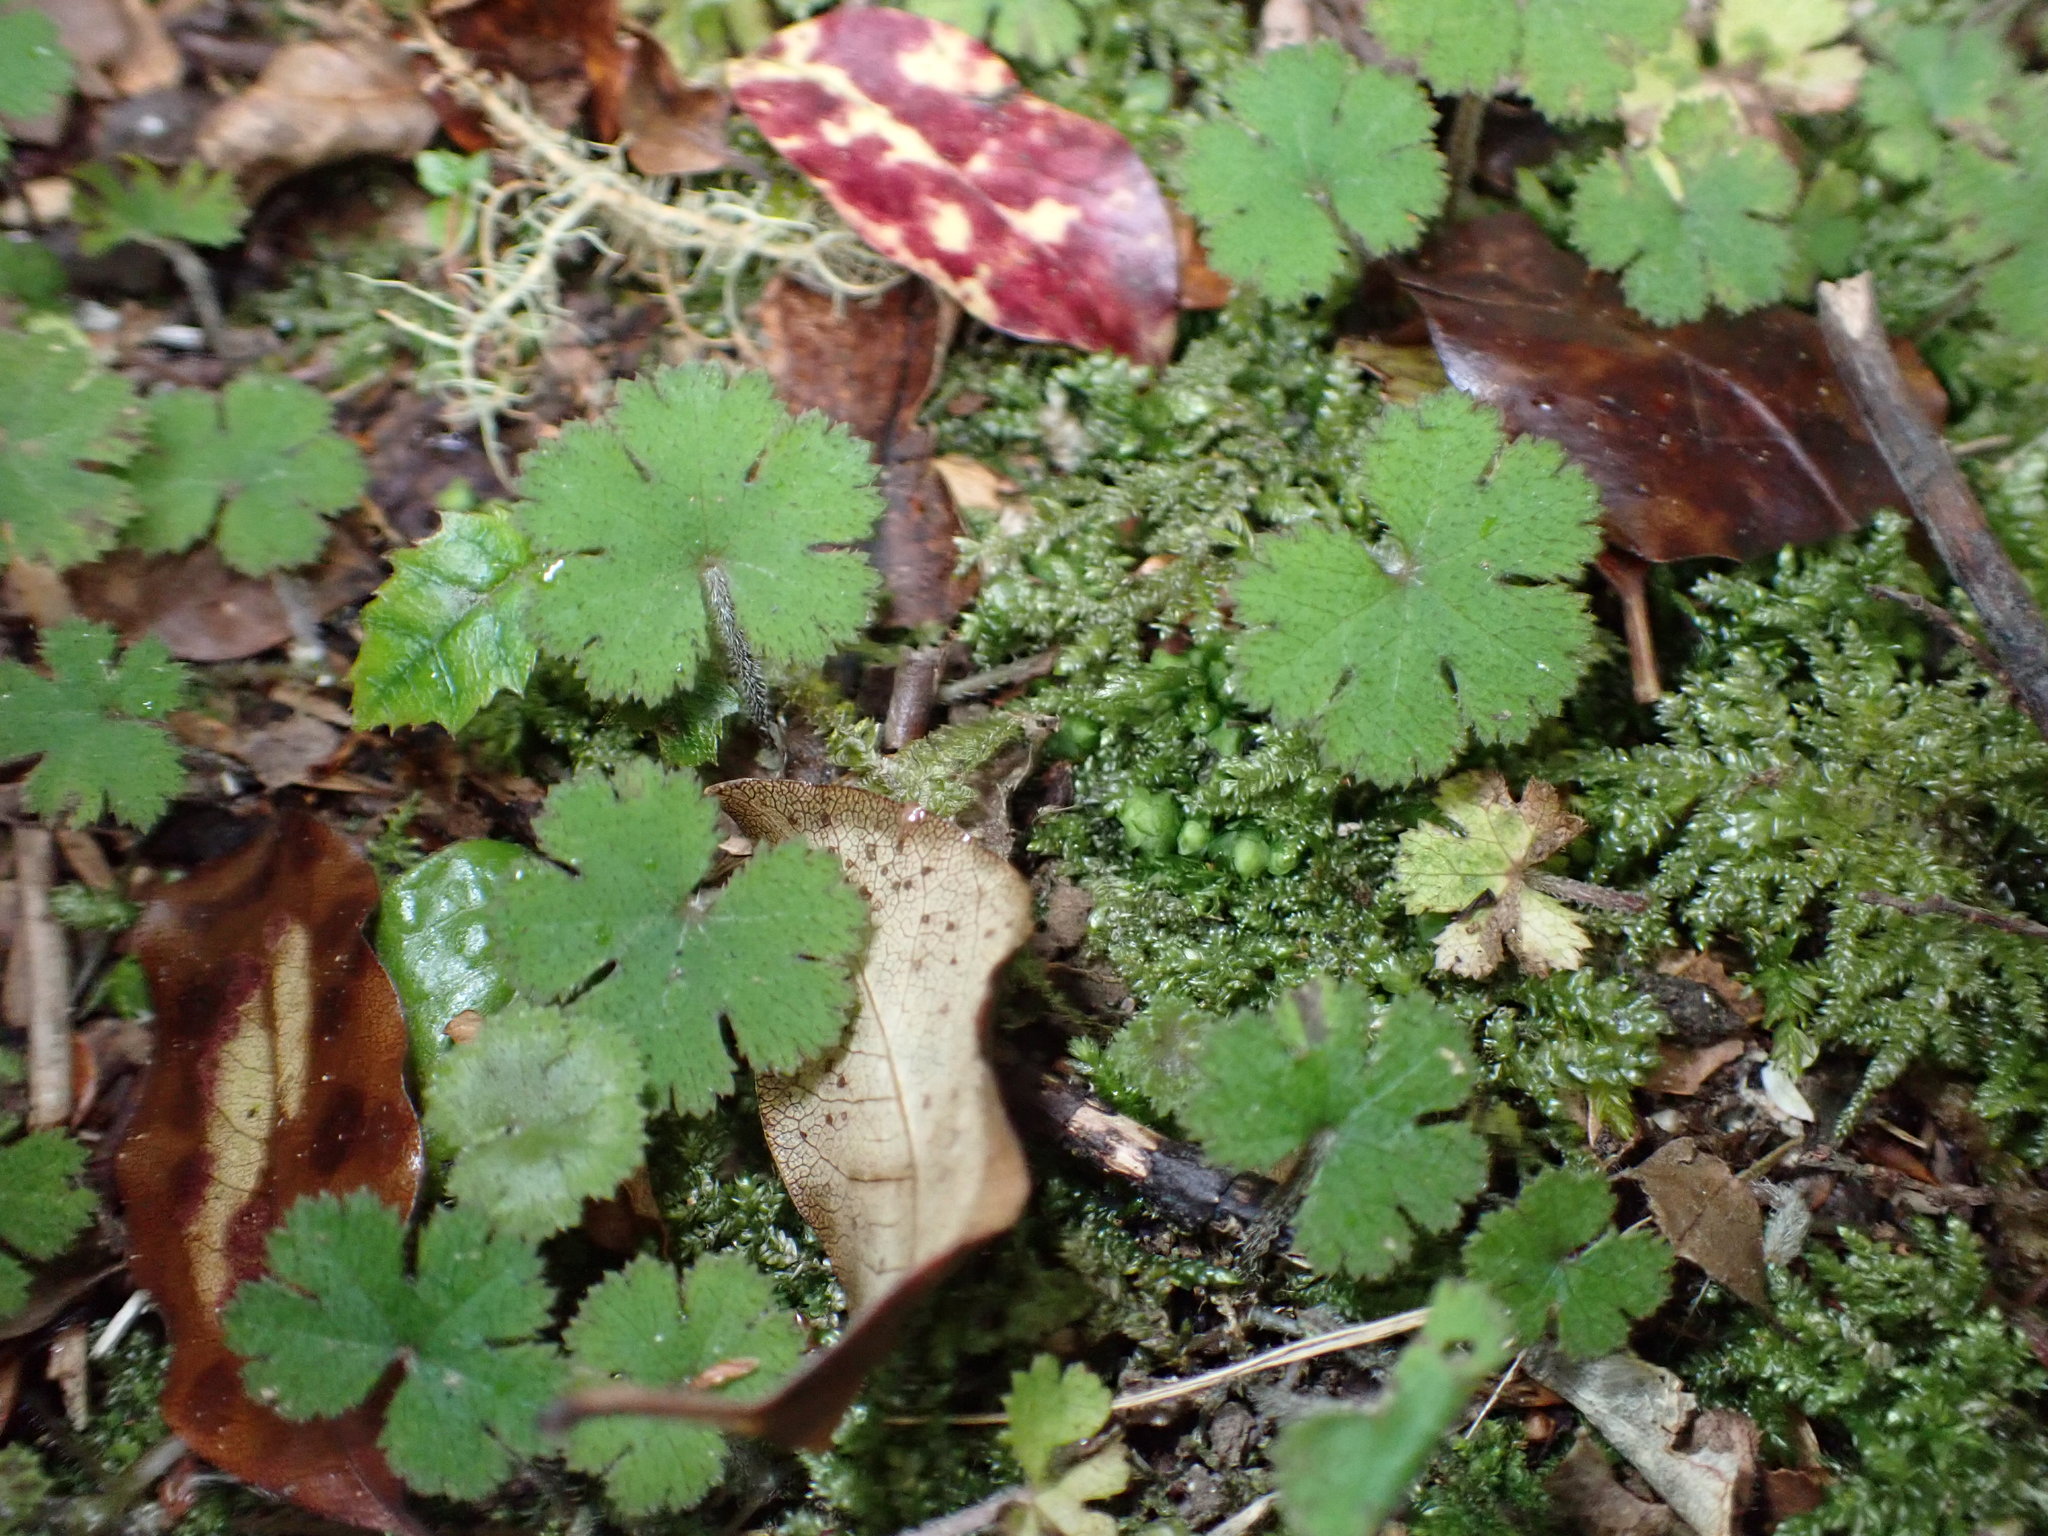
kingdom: Plantae
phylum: Tracheophyta
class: Magnoliopsida
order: Apiales
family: Araliaceae
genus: Hydrocotyle
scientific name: Hydrocotyle elongata
